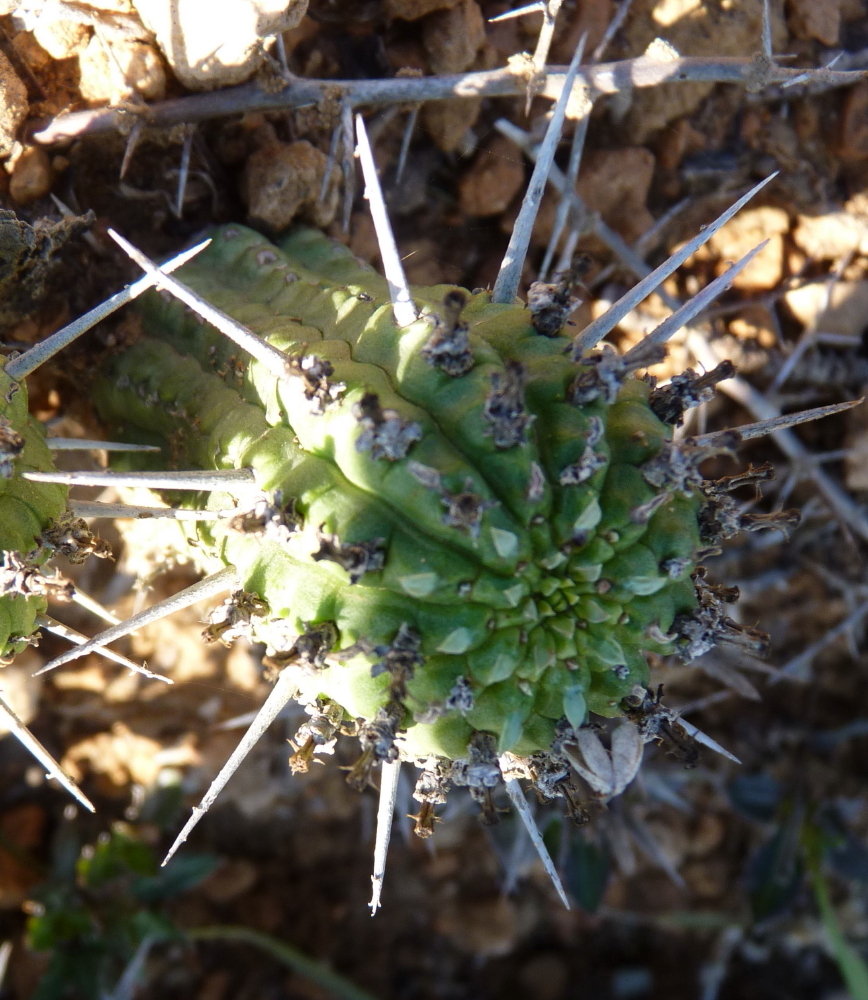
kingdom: Plantae
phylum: Tracheophyta
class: Magnoliopsida
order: Malpighiales
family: Euphorbiaceae
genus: Euphorbia
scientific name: Euphorbia mammillaris
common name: Corkscrew
